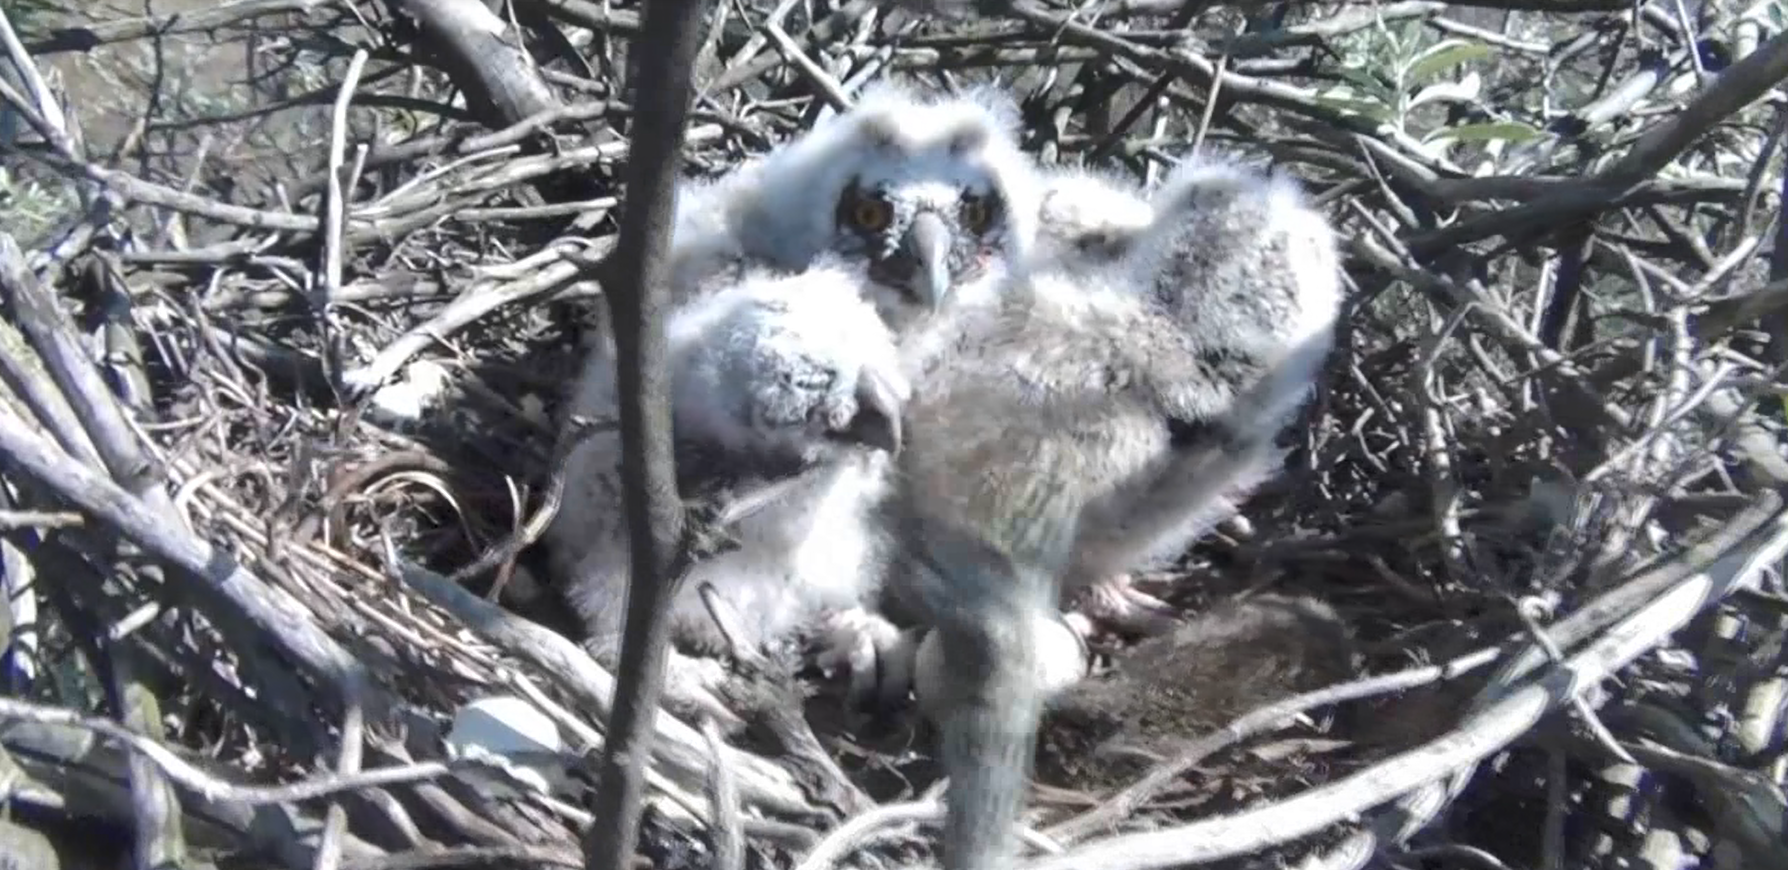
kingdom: Animalia
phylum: Chordata
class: Aves
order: Strigiformes
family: Strigidae
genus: Asio
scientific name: Asio otus
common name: Long-eared owl
